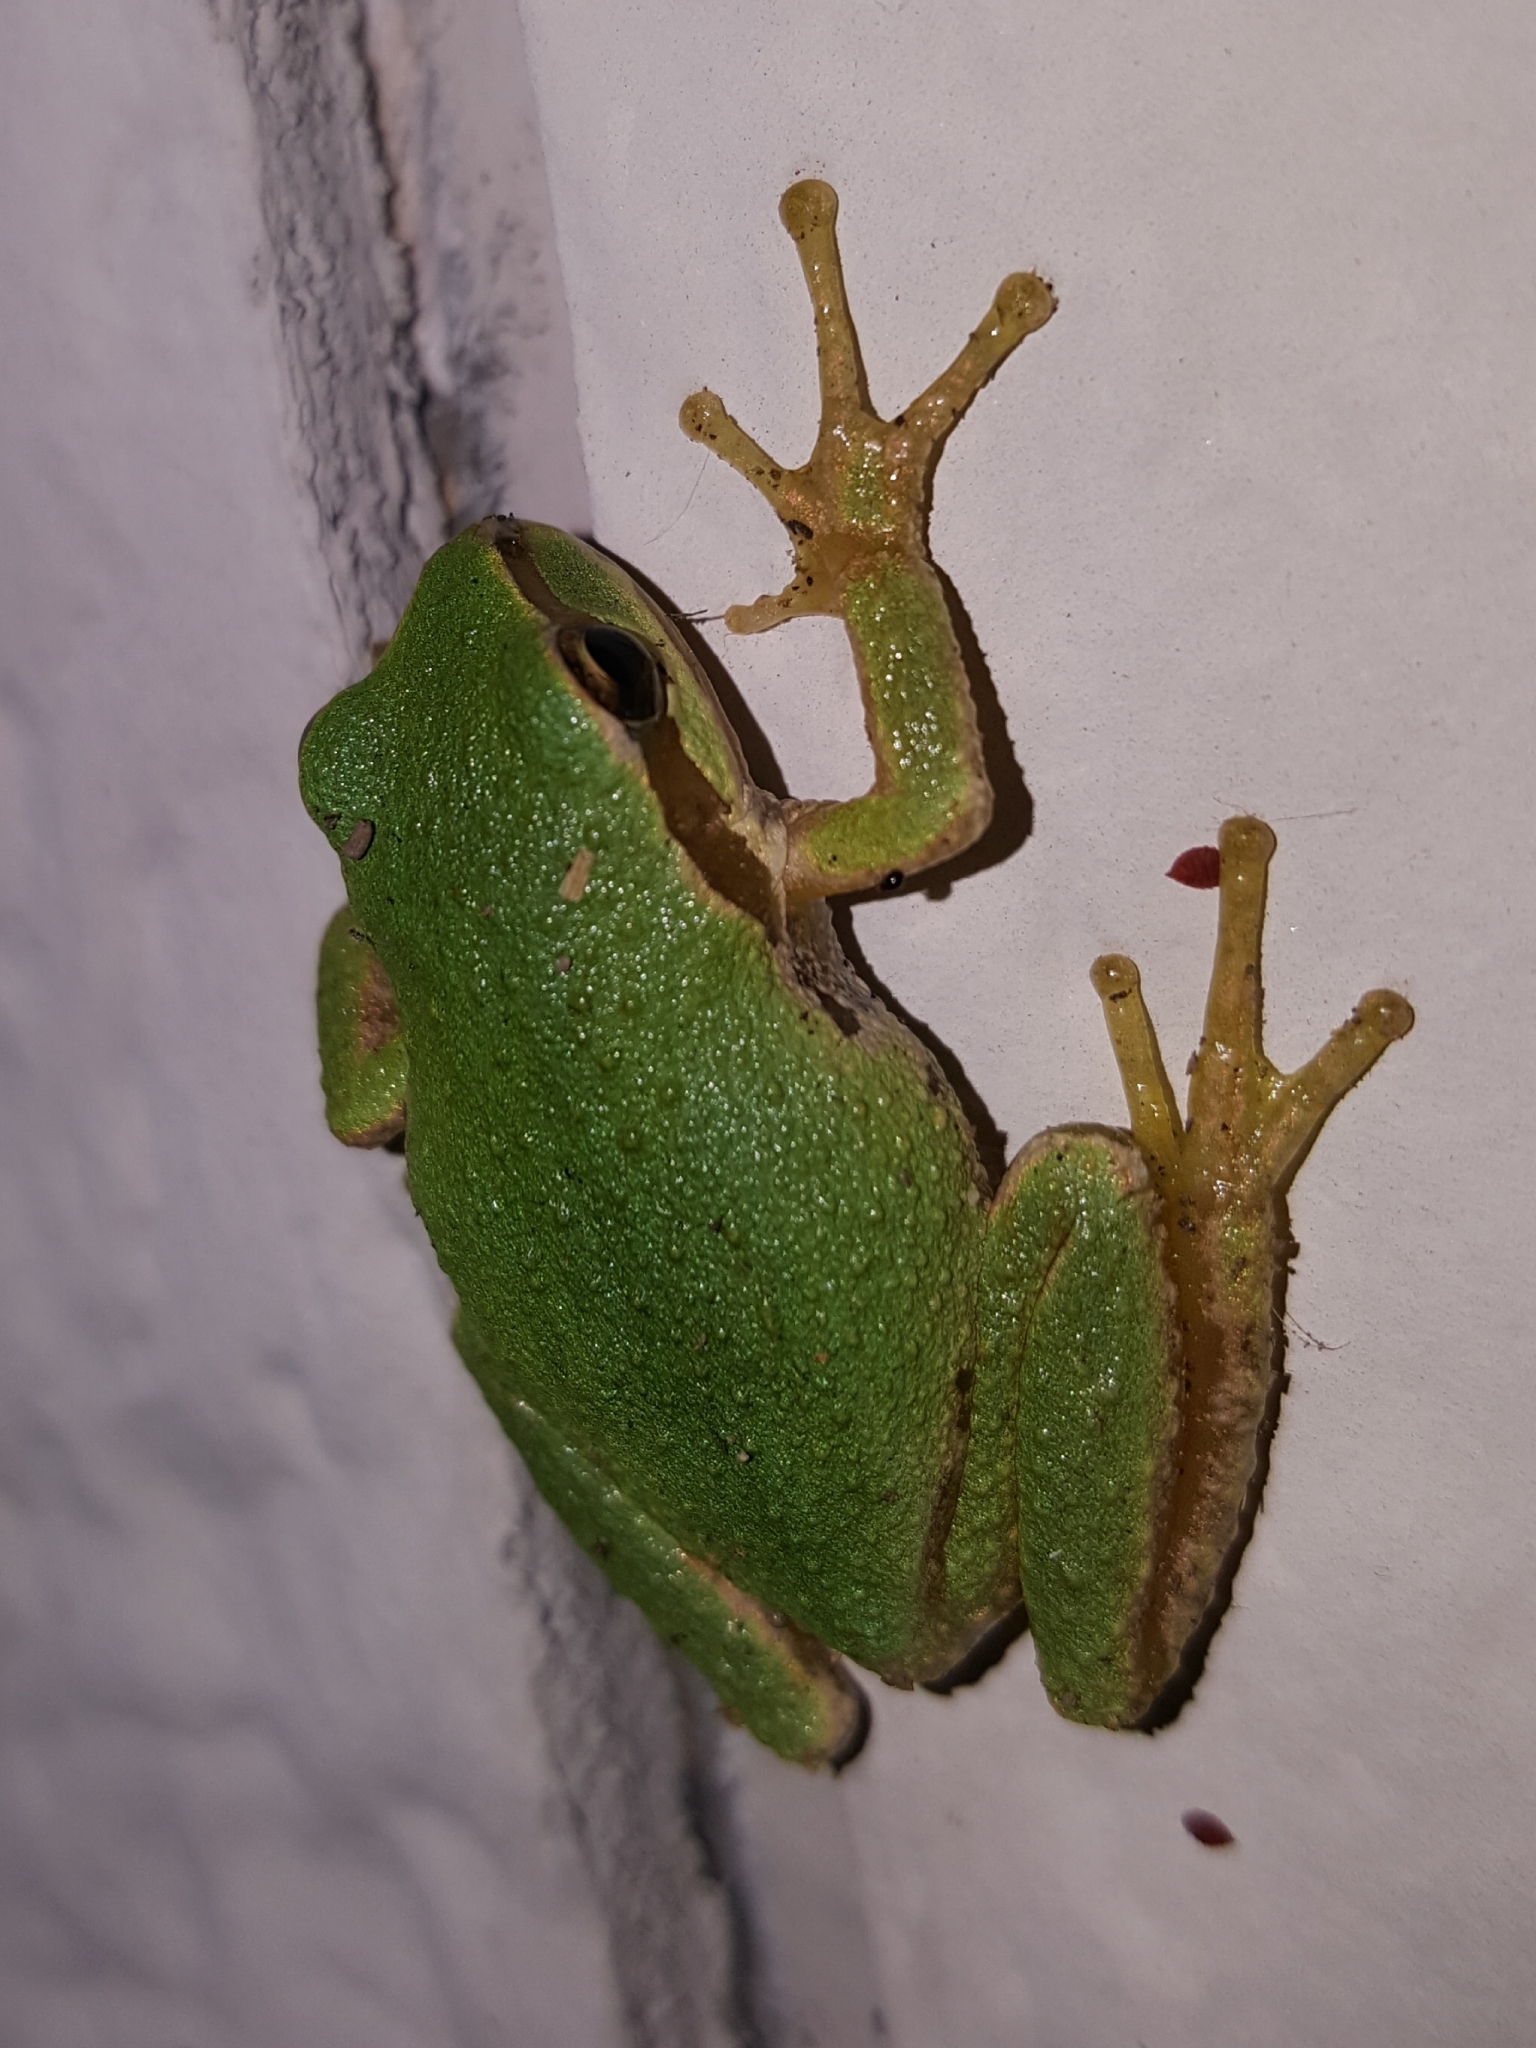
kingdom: Animalia
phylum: Chordata
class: Amphibia
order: Anura
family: Hylidae
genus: Pseudacris
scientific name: Pseudacris regilla
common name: Pacific chorus frog
